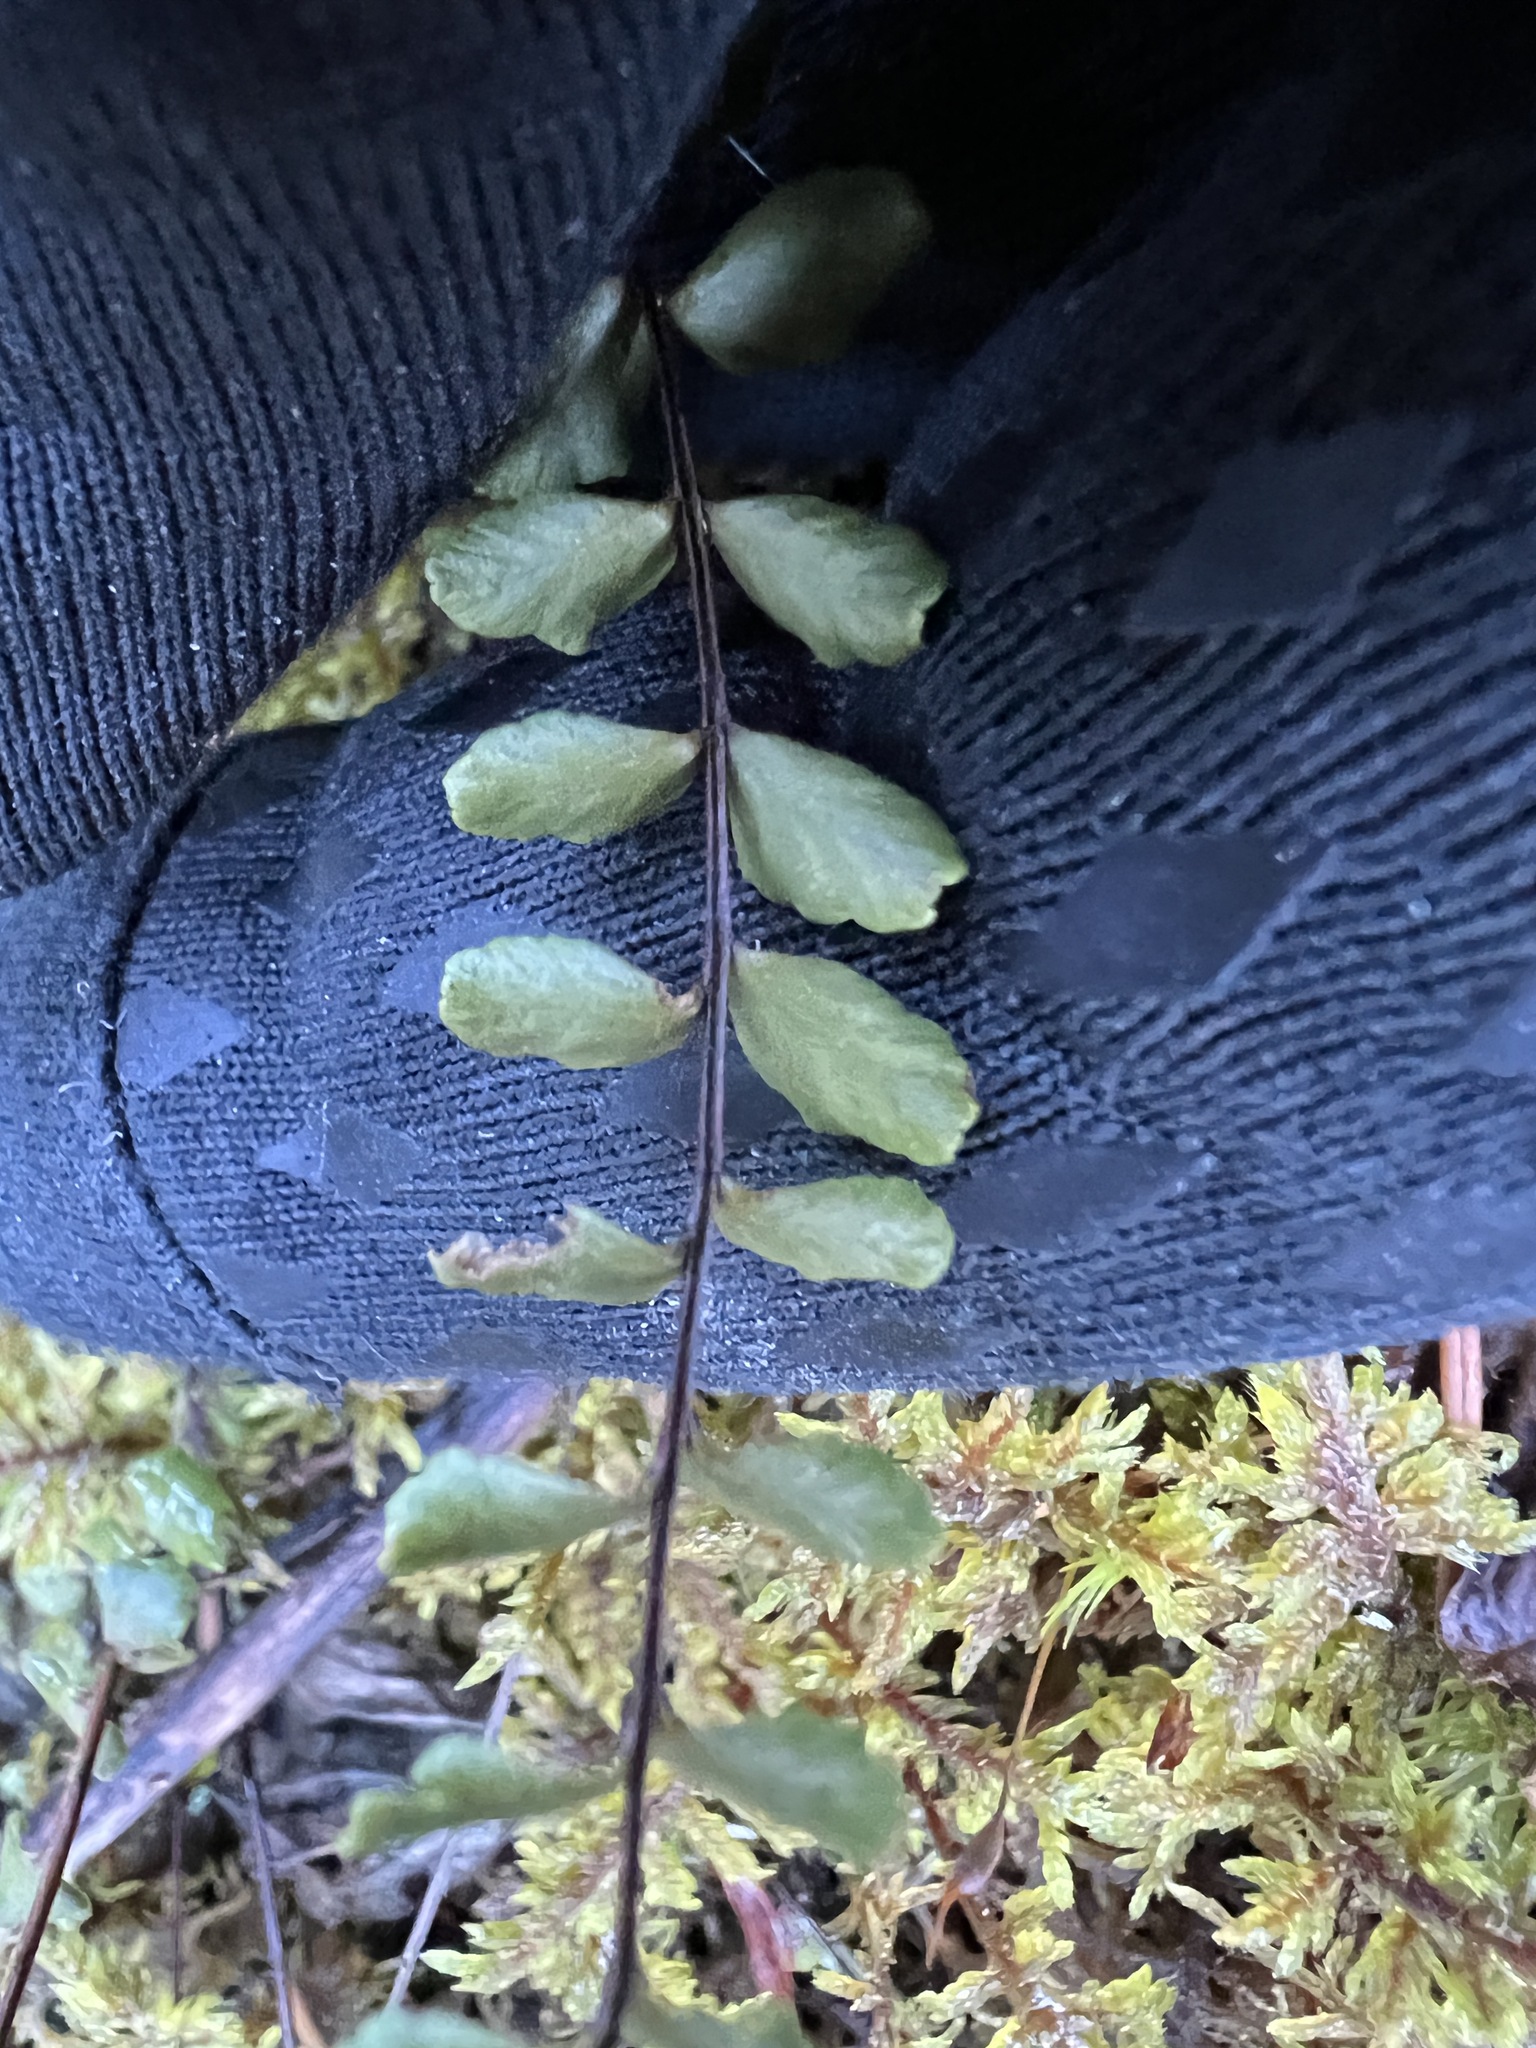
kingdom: Plantae
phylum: Tracheophyta
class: Polypodiopsida
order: Polypodiales
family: Aspleniaceae
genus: Asplenium
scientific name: Asplenium trichomanes
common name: Maidenhair spleenwort
